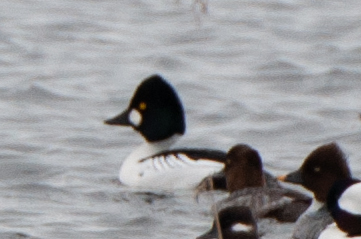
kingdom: Animalia
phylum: Chordata
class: Aves
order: Anseriformes
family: Anatidae
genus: Bucephala
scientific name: Bucephala clangula
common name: Common goldeneye
